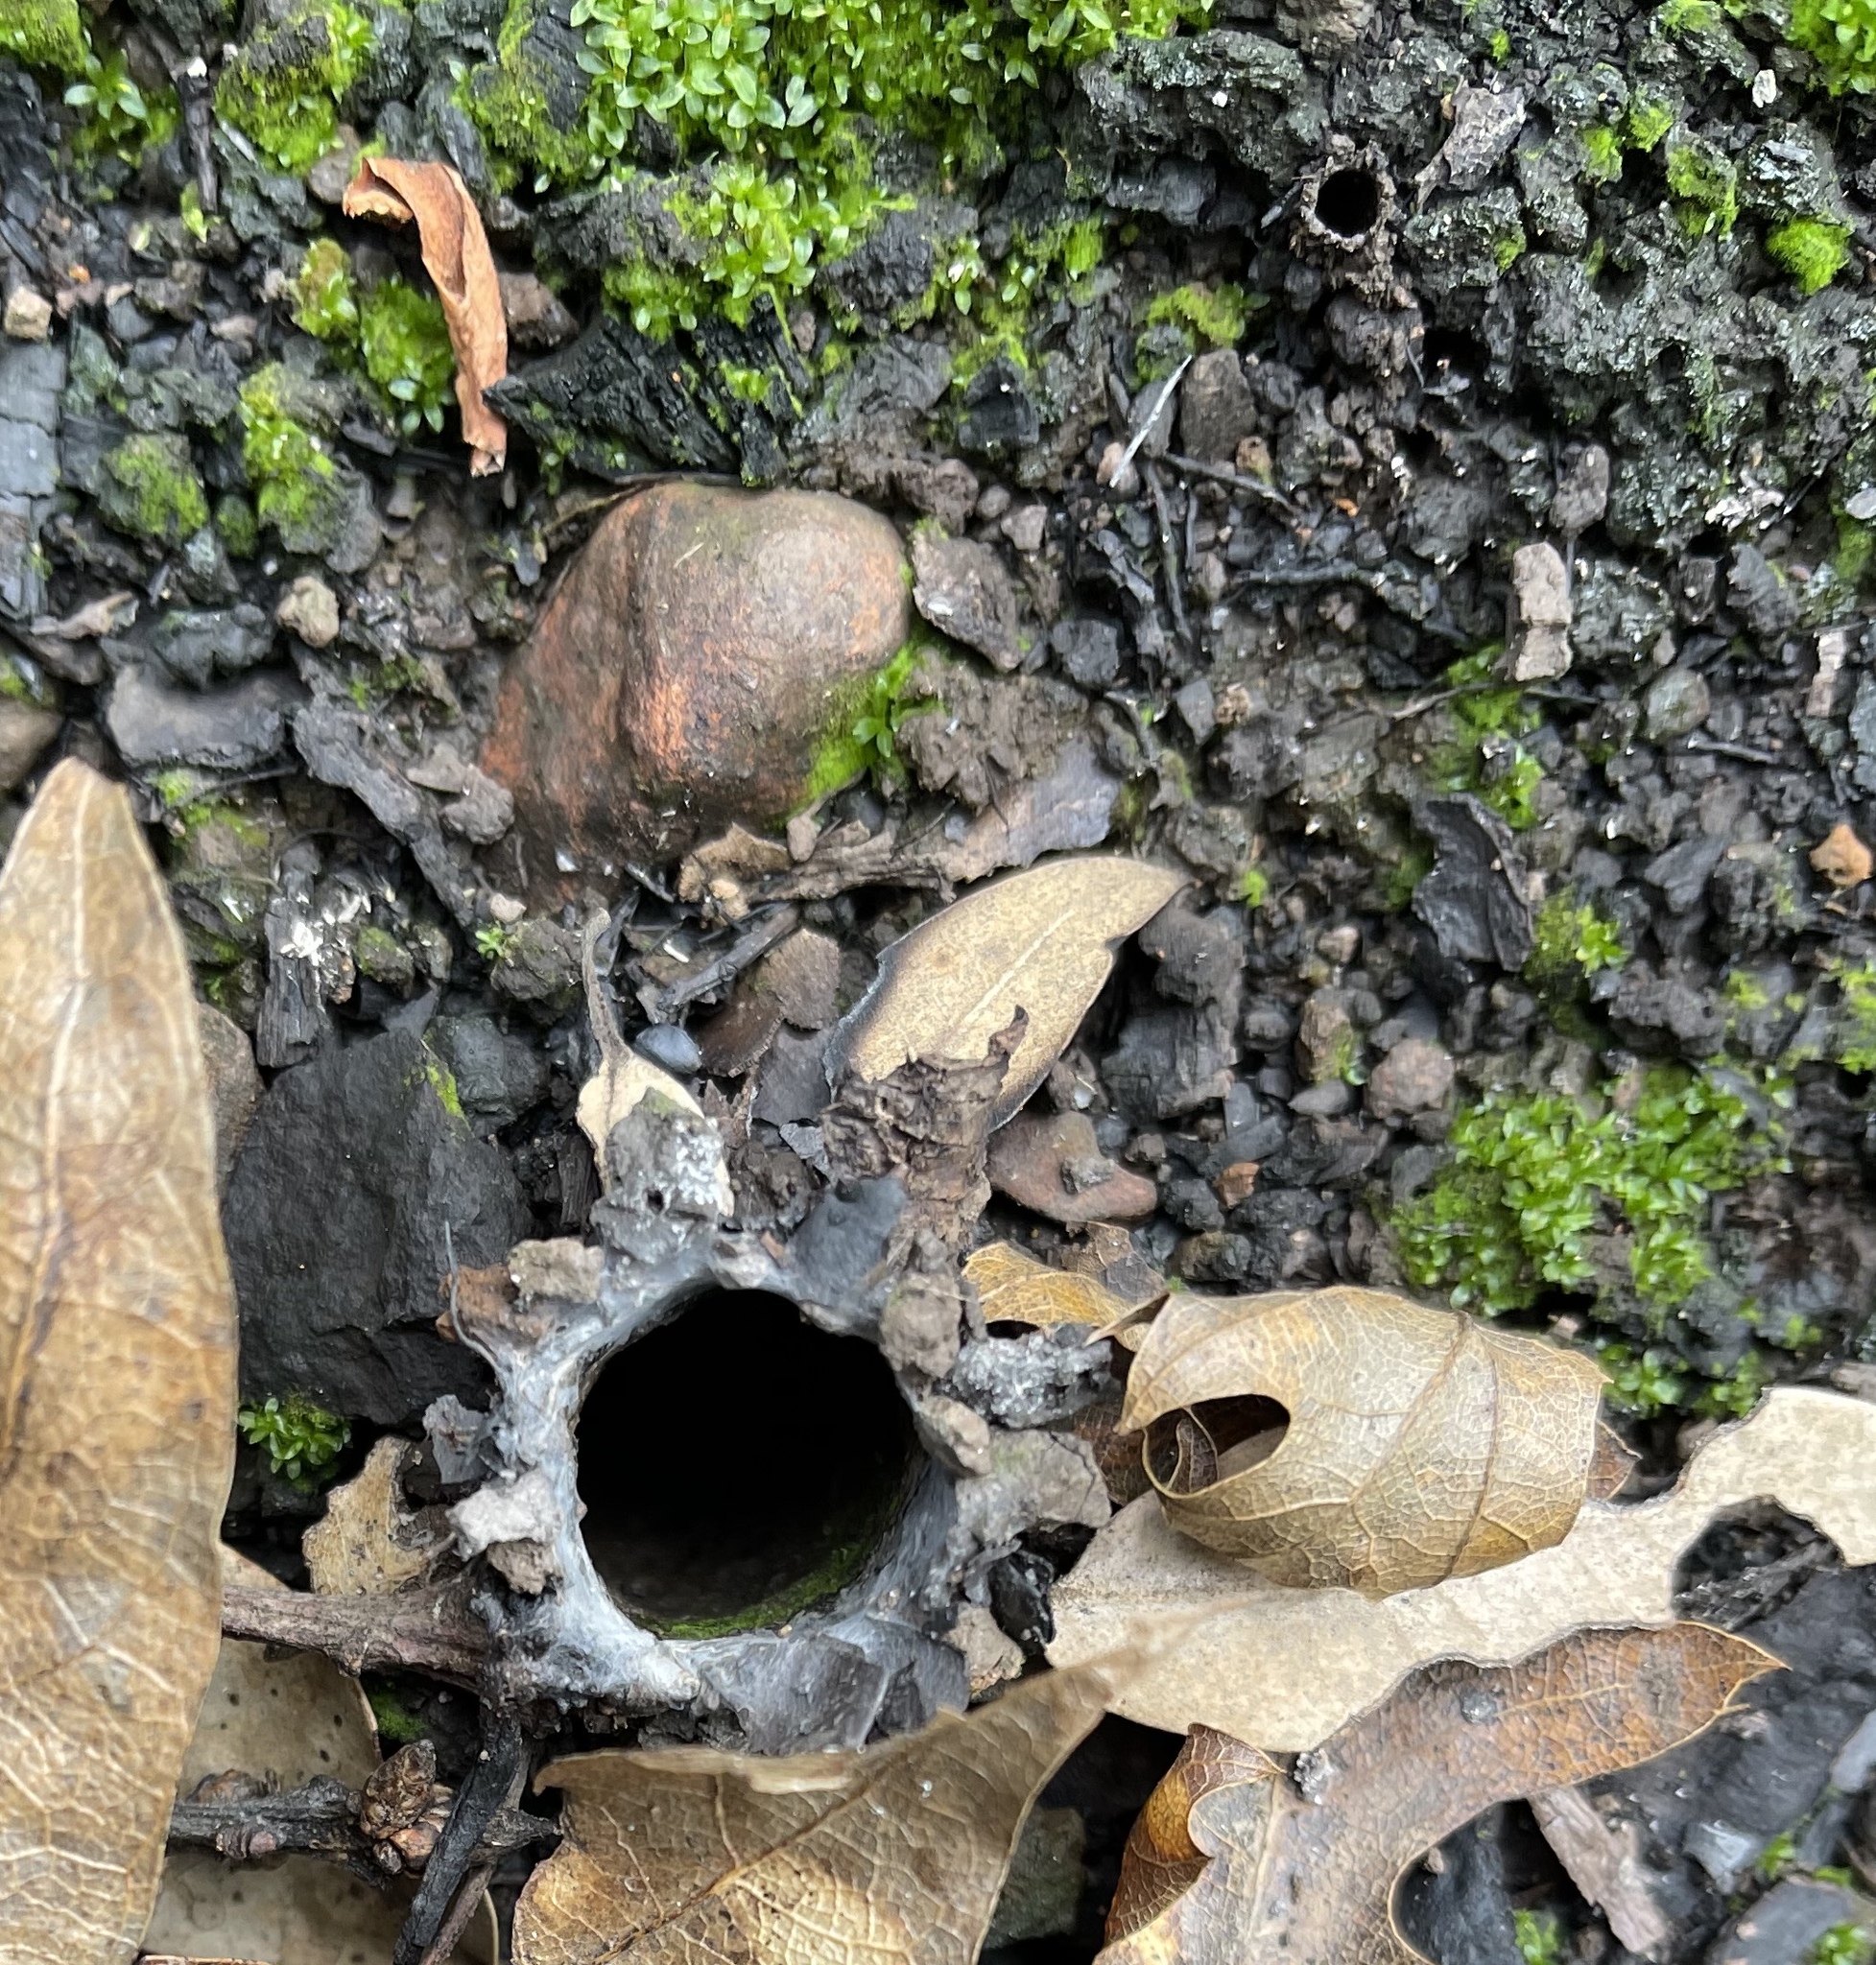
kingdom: Animalia
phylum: Arthropoda
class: Arachnida
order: Araneae
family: Antrodiaetidae
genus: Atypoides
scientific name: Atypoides riversi
